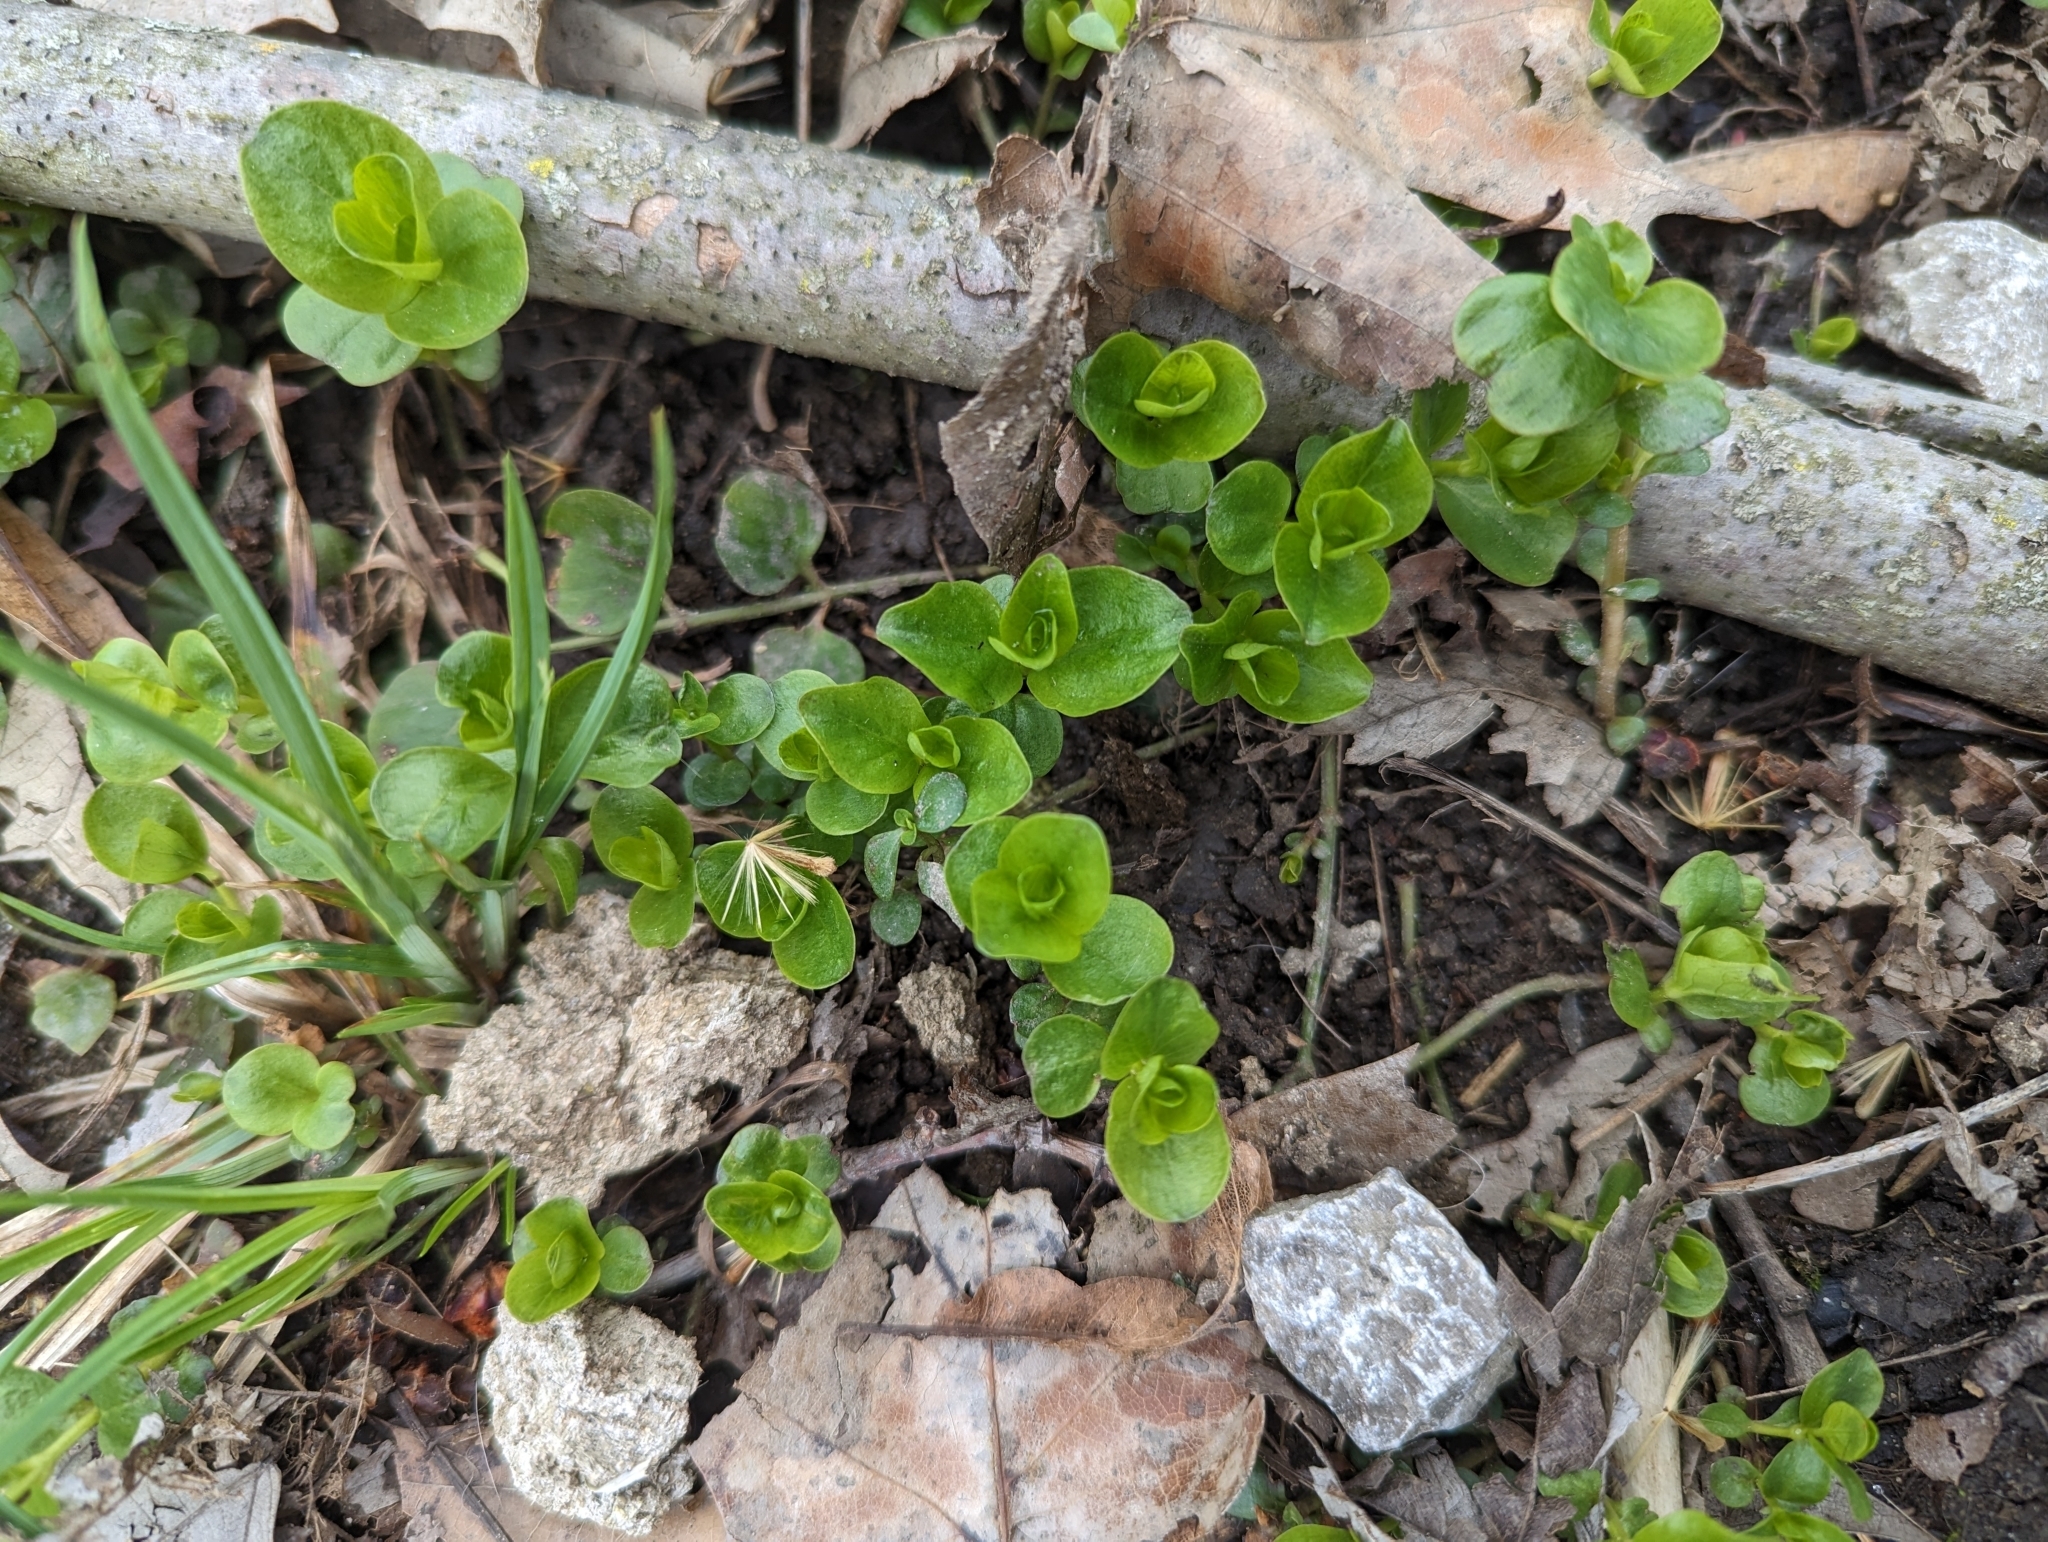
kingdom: Plantae
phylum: Tracheophyta
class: Magnoliopsida
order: Ericales
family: Primulaceae
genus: Lysimachia
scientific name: Lysimachia nummularia
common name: Moneywort
